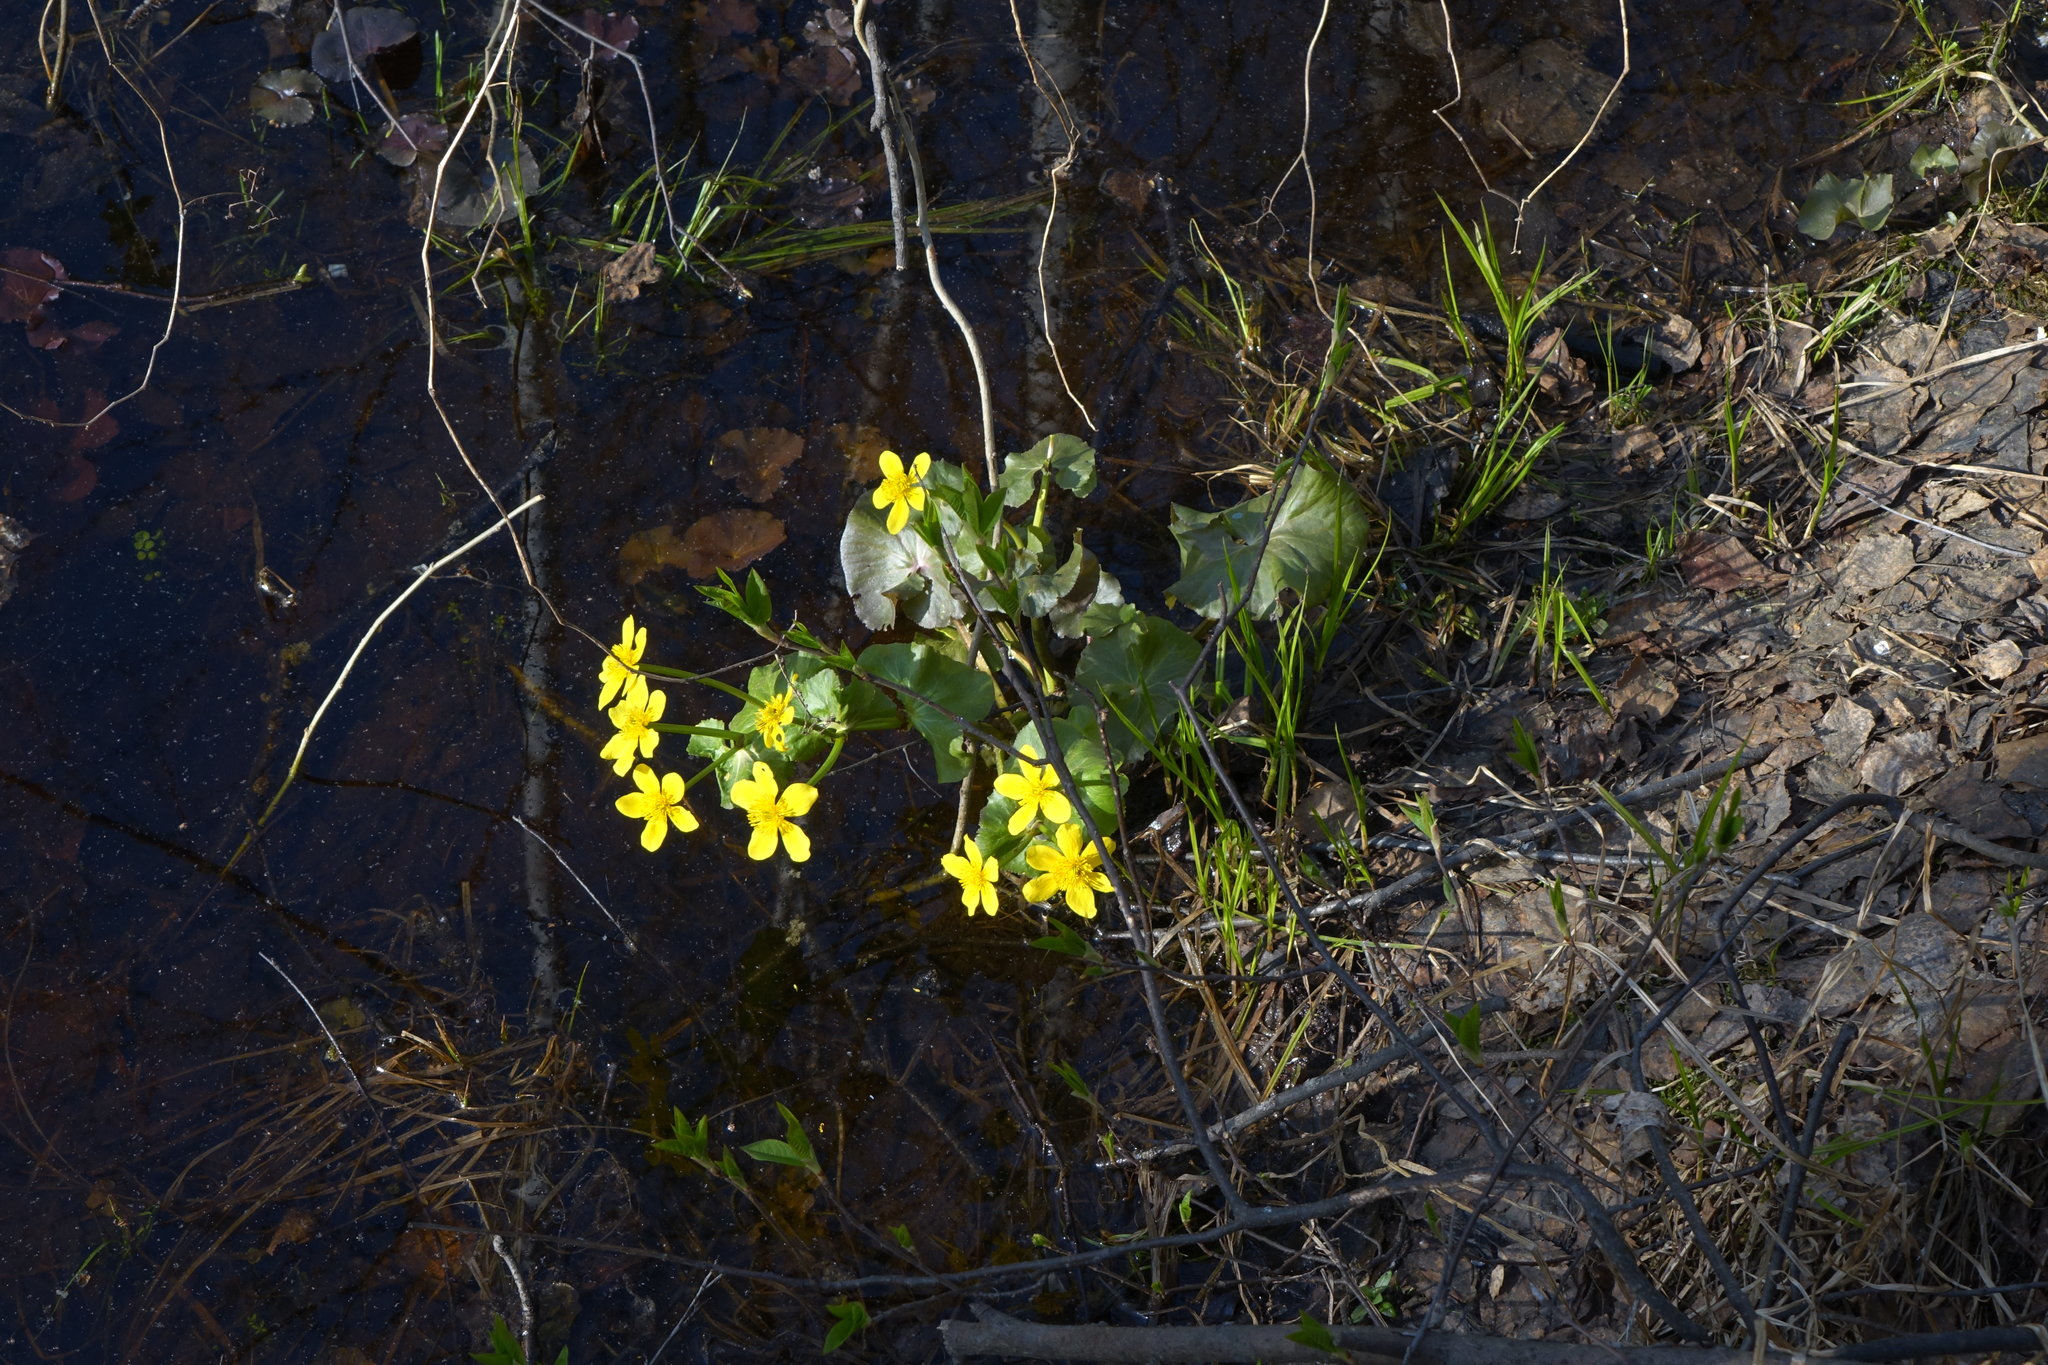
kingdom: Plantae
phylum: Tracheophyta
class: Magnoliopsida
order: Ranunculales
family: Ranunculaceae
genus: Caltha
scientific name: Caltha palustris
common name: Marsh marigold
